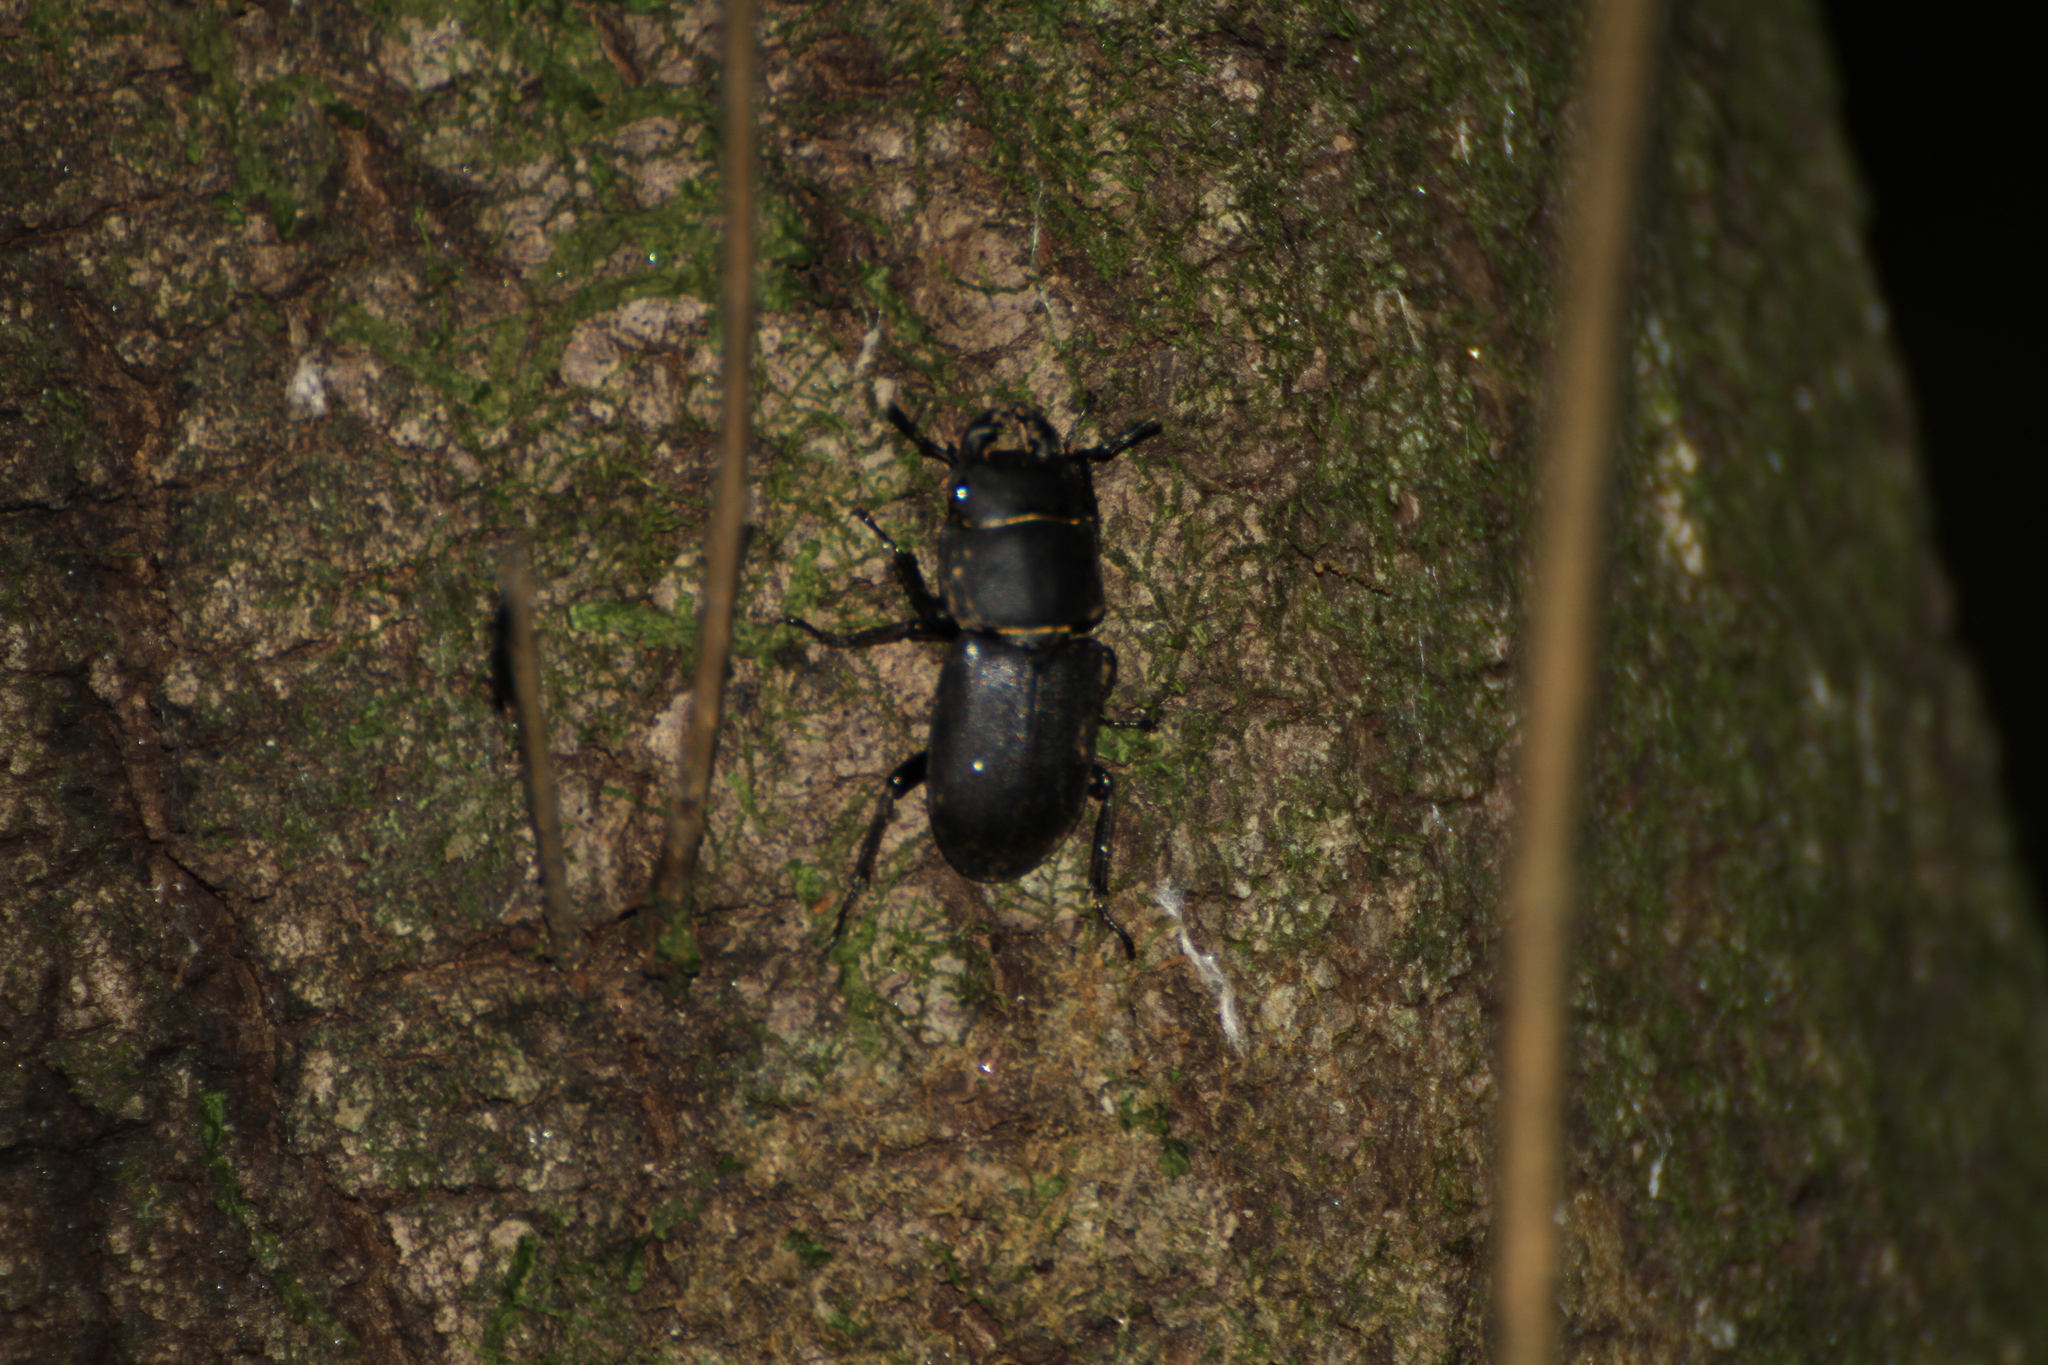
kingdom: Animalia
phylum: Arthropoda
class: Insecta
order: Coleoptera
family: Lucanidae
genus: Dorcus
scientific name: Dorcus parallelipipedus
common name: Lesser stag beetle
